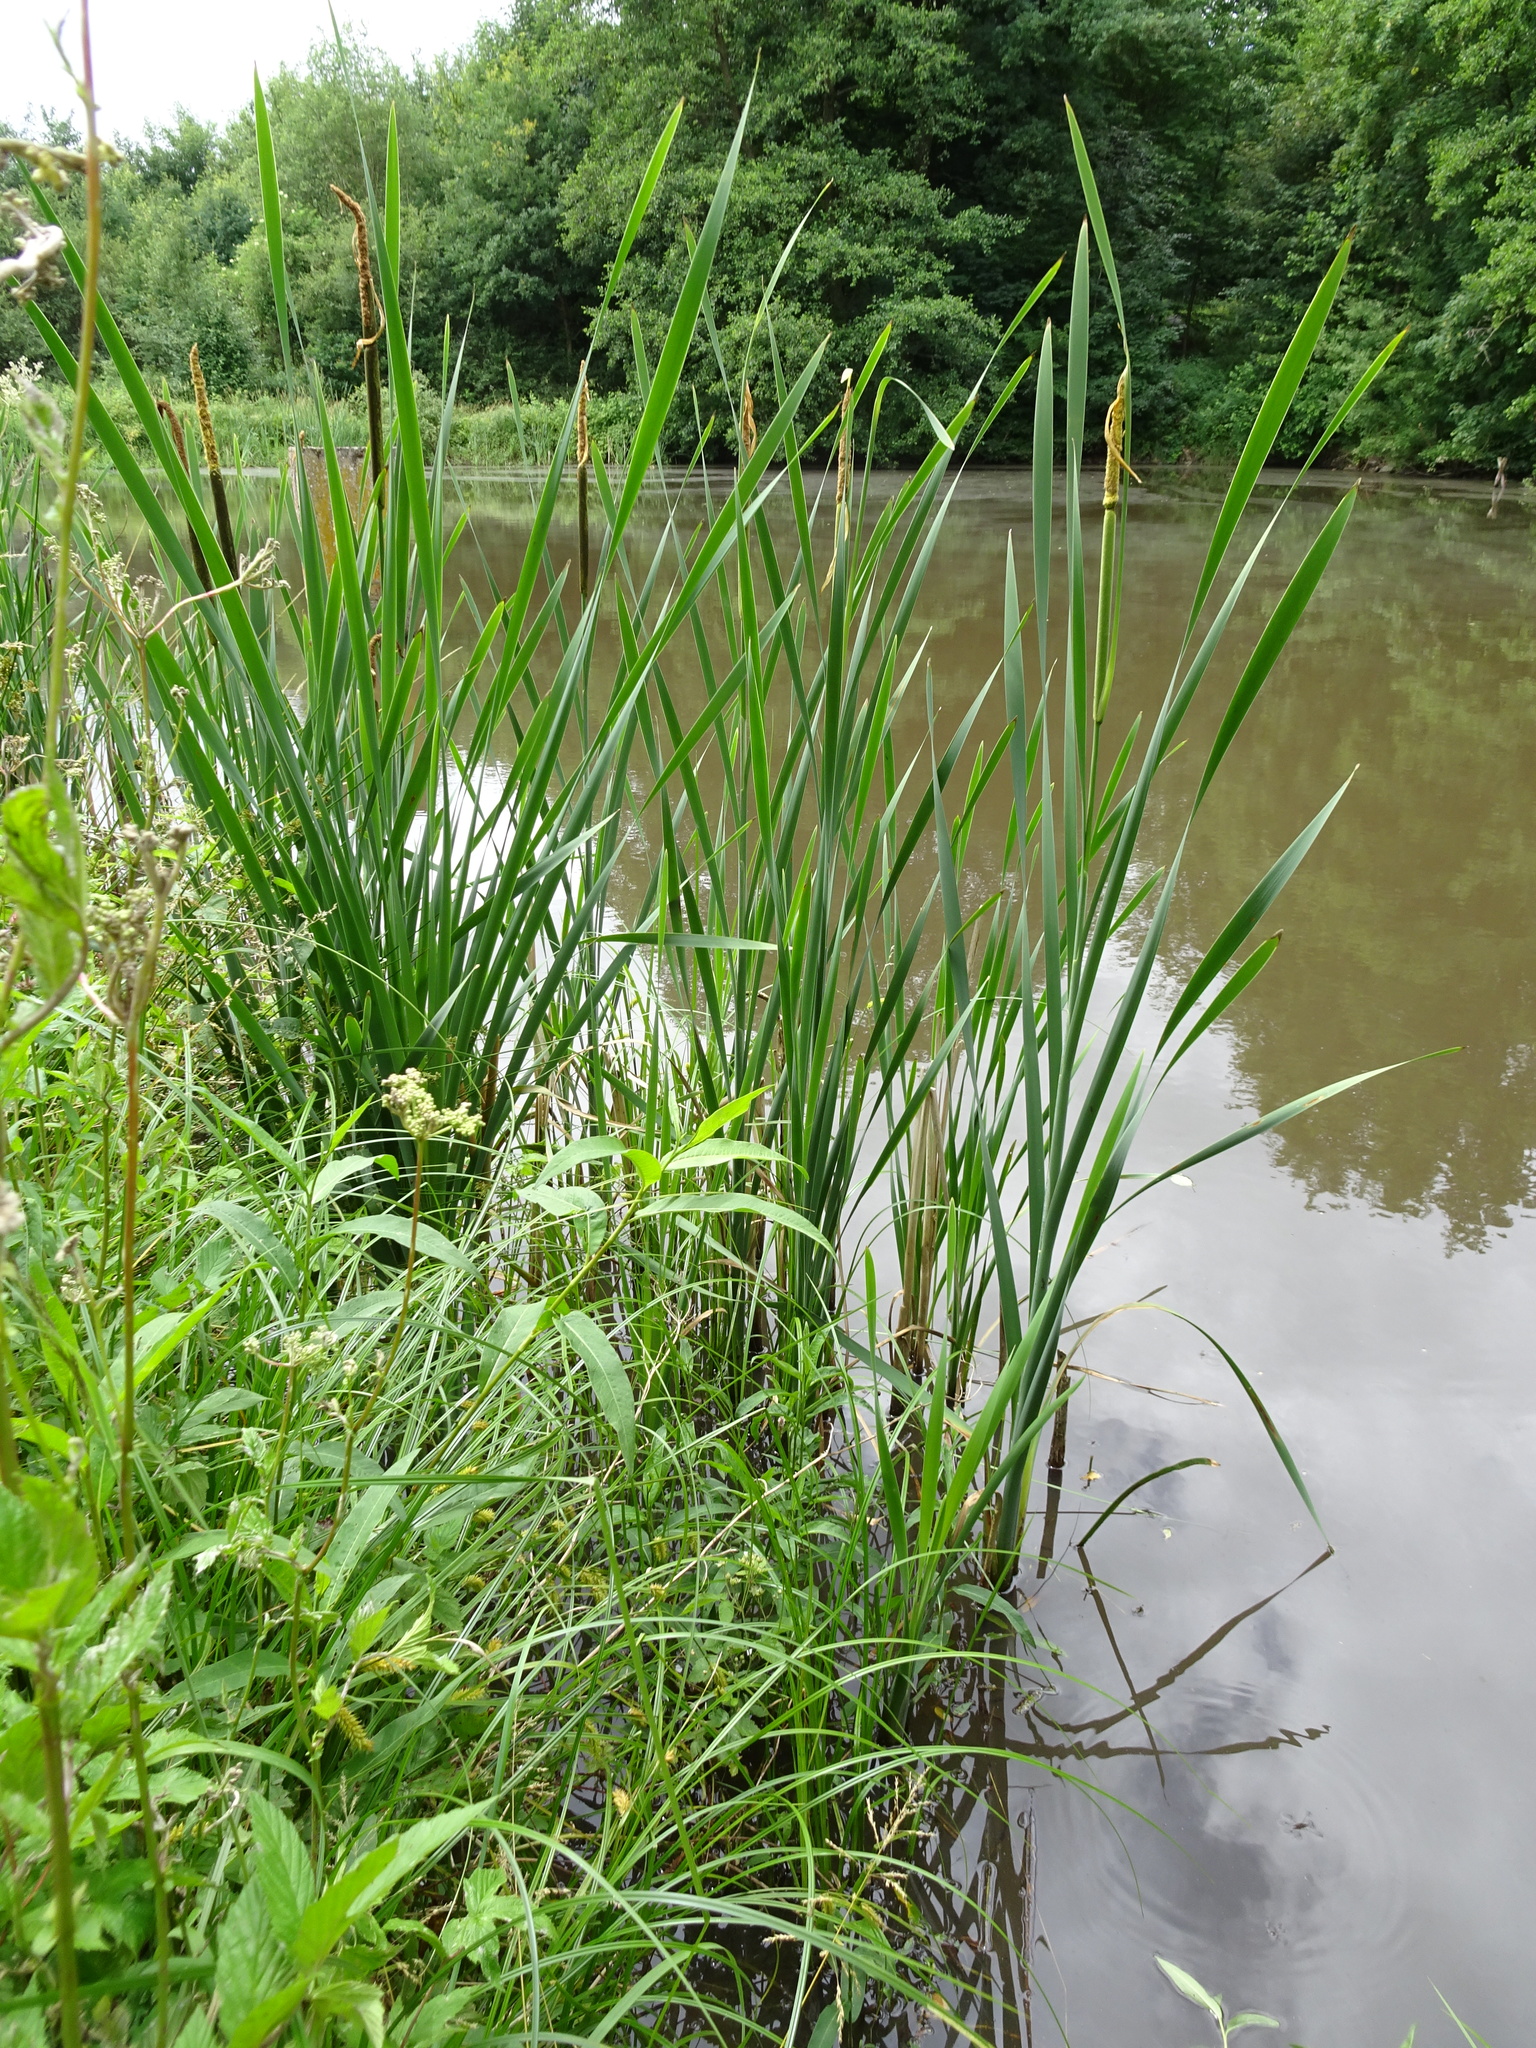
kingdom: Plantae
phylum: Tracheophyta
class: Liliopsida
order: Poales
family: Typhaceae
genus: Typha
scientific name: Typha latifolia
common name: Broadleaf cattail
